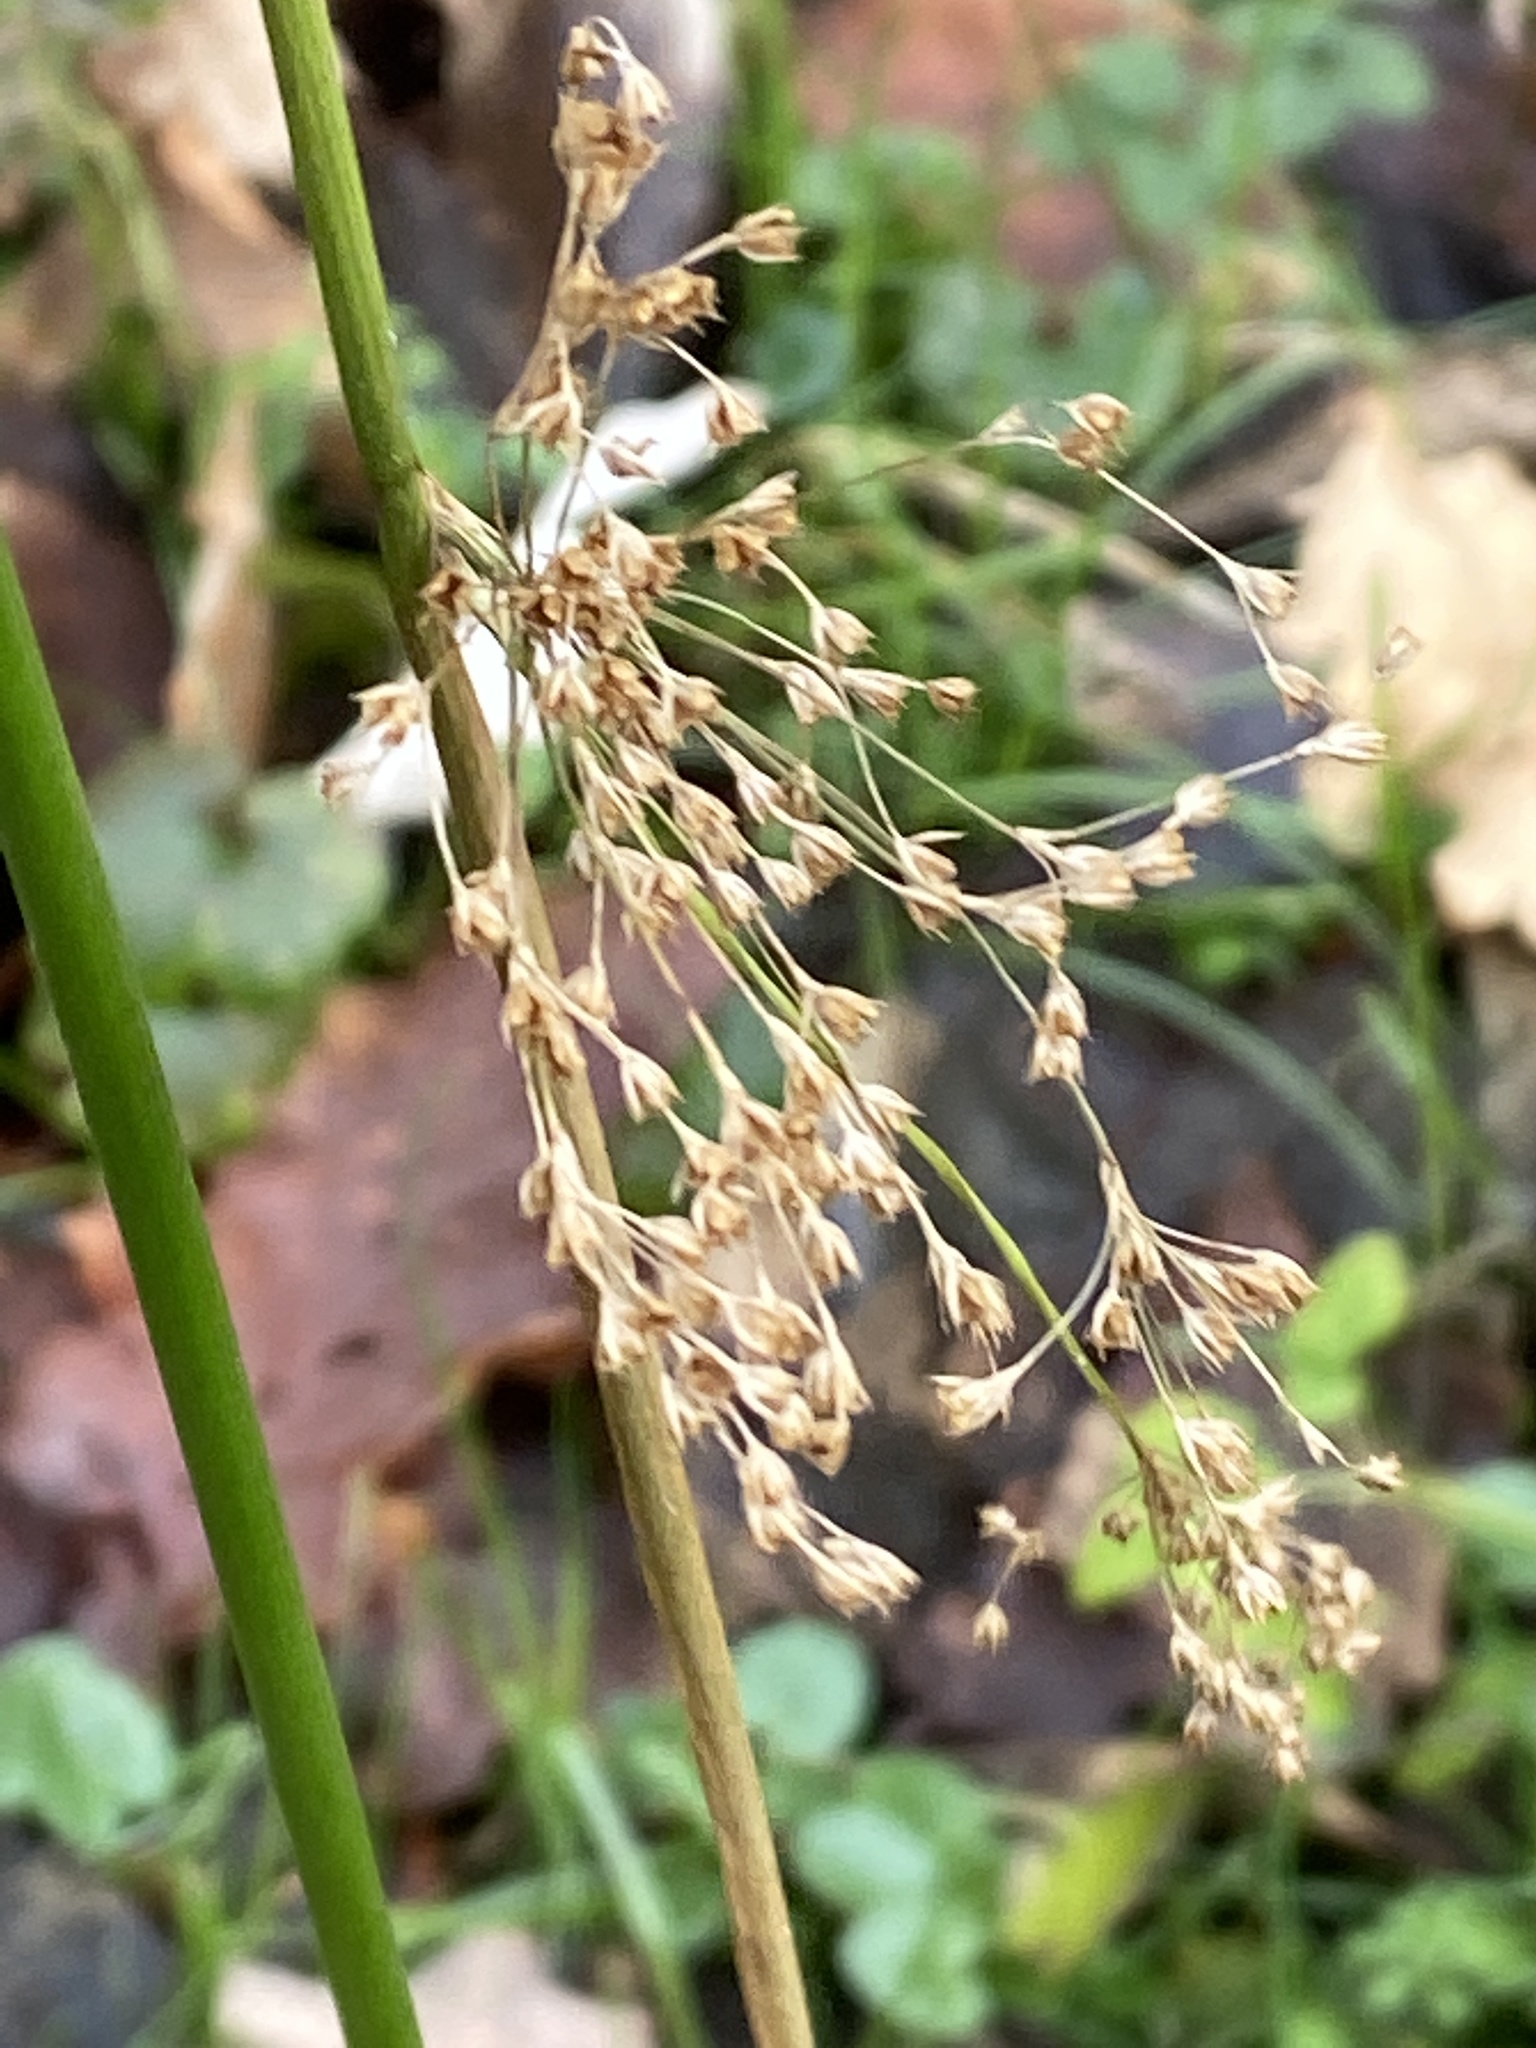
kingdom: Plantae
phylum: Tracheophyta
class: Liliopsida
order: Poales
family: Juncaceae
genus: Juncus
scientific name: Juncus effusus
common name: Soft rush
